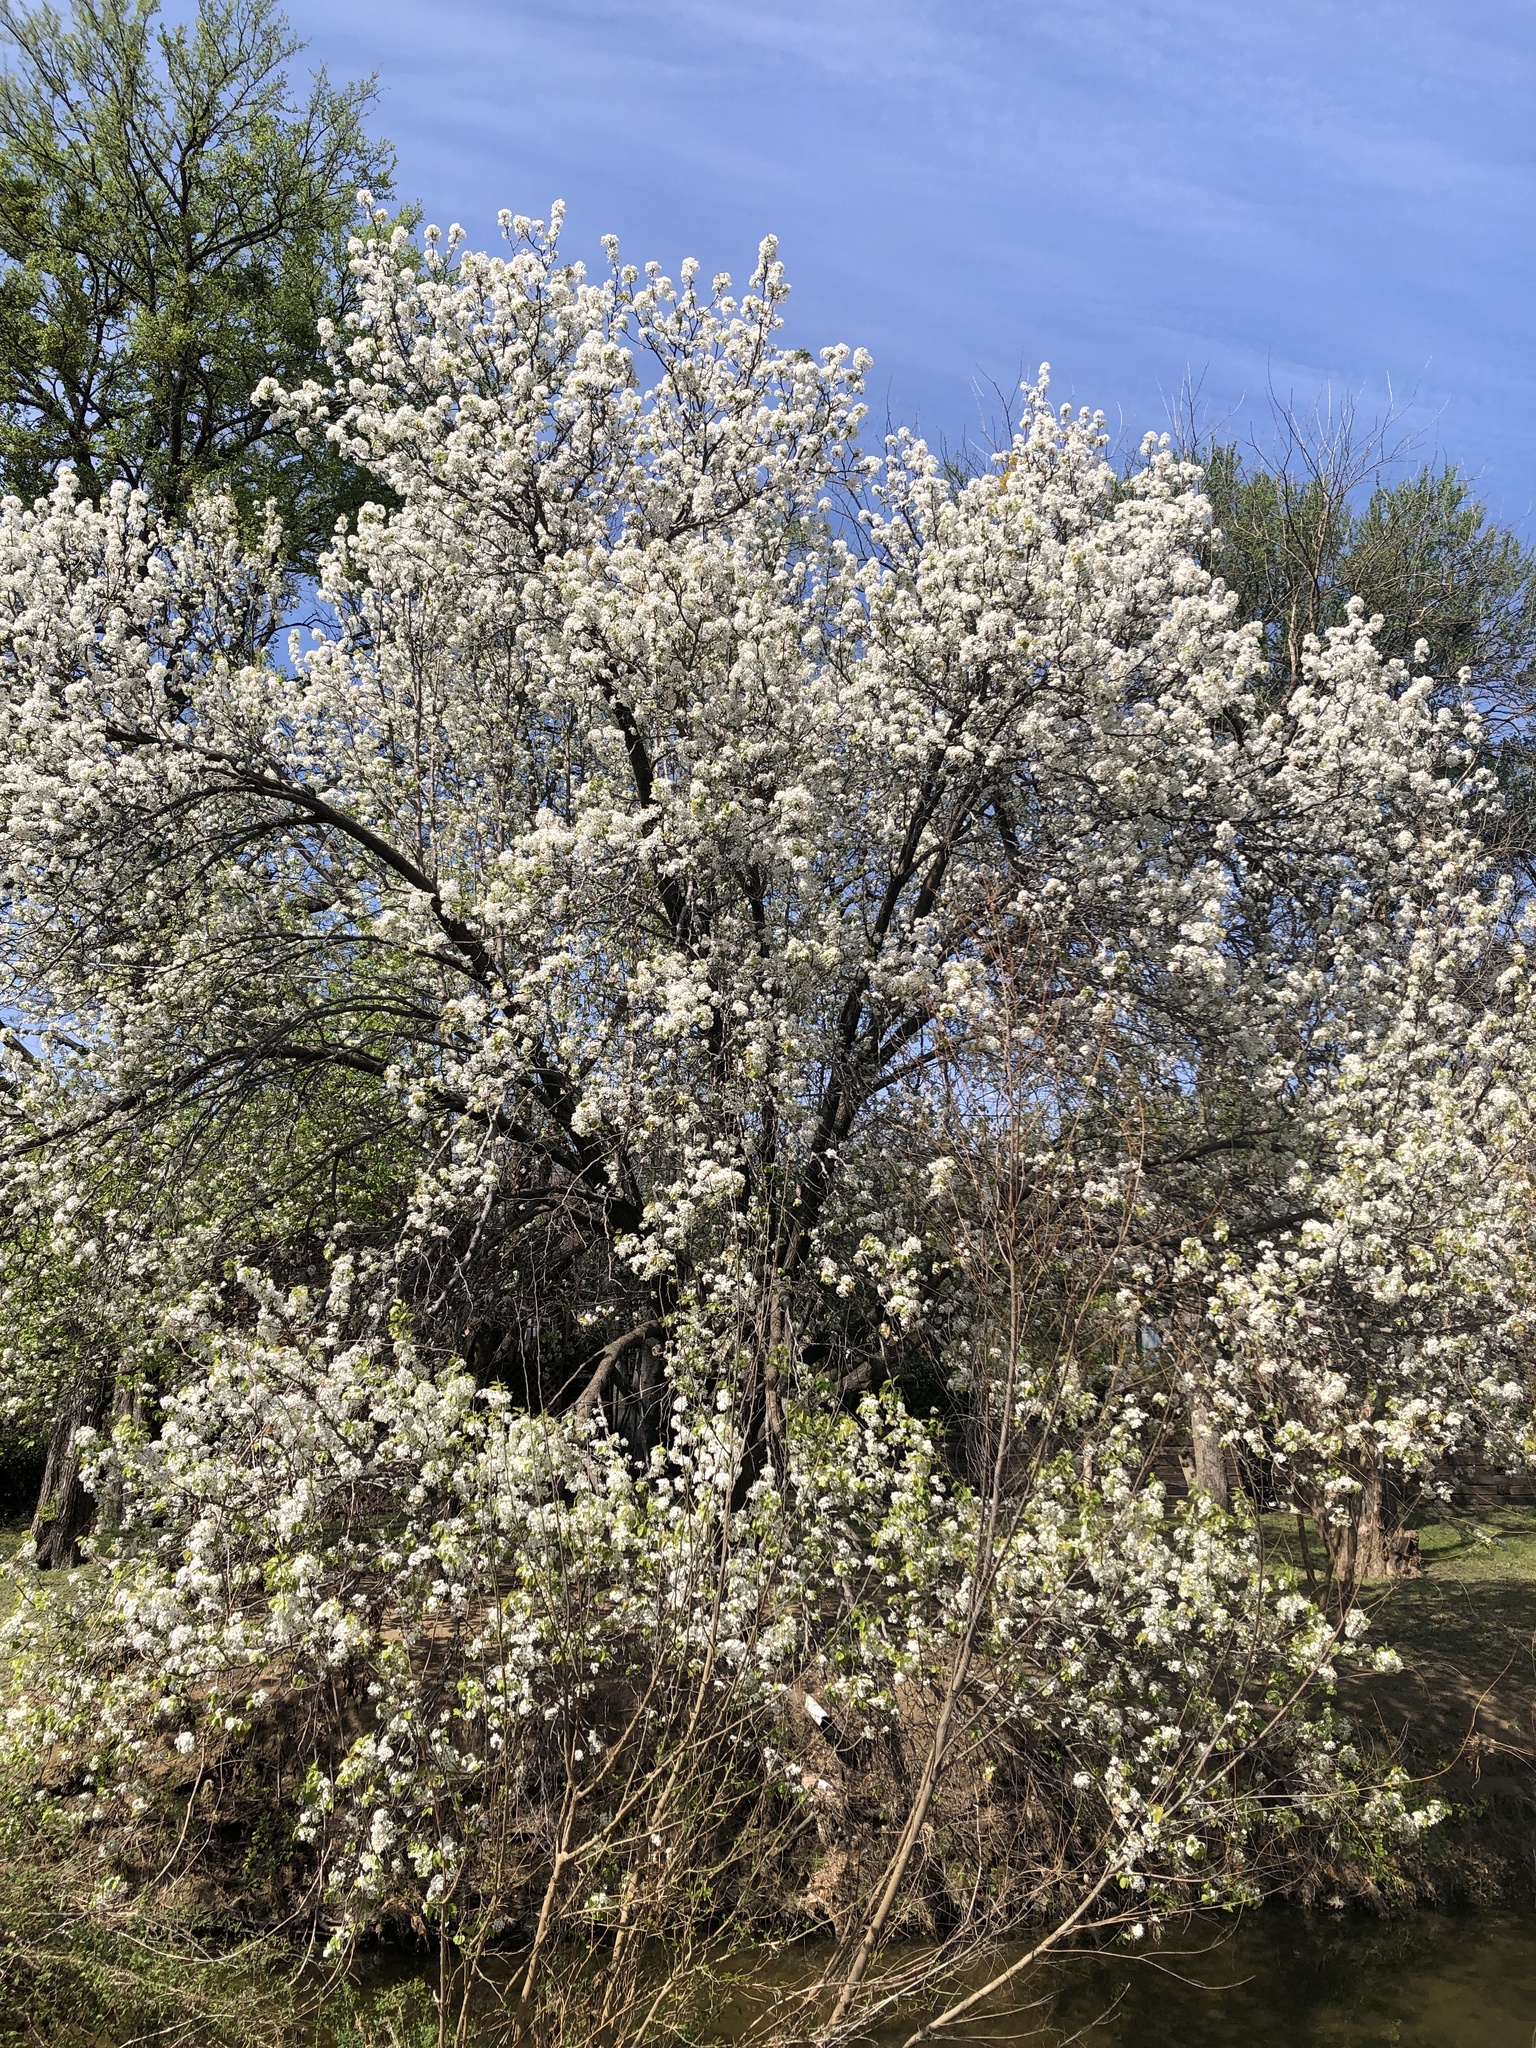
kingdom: Plantae
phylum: Tracheophyta
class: Magnoliopsida
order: Rosales
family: Rosaceae
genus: Pyrus
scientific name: Pyrus calleryana
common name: Callery pear
